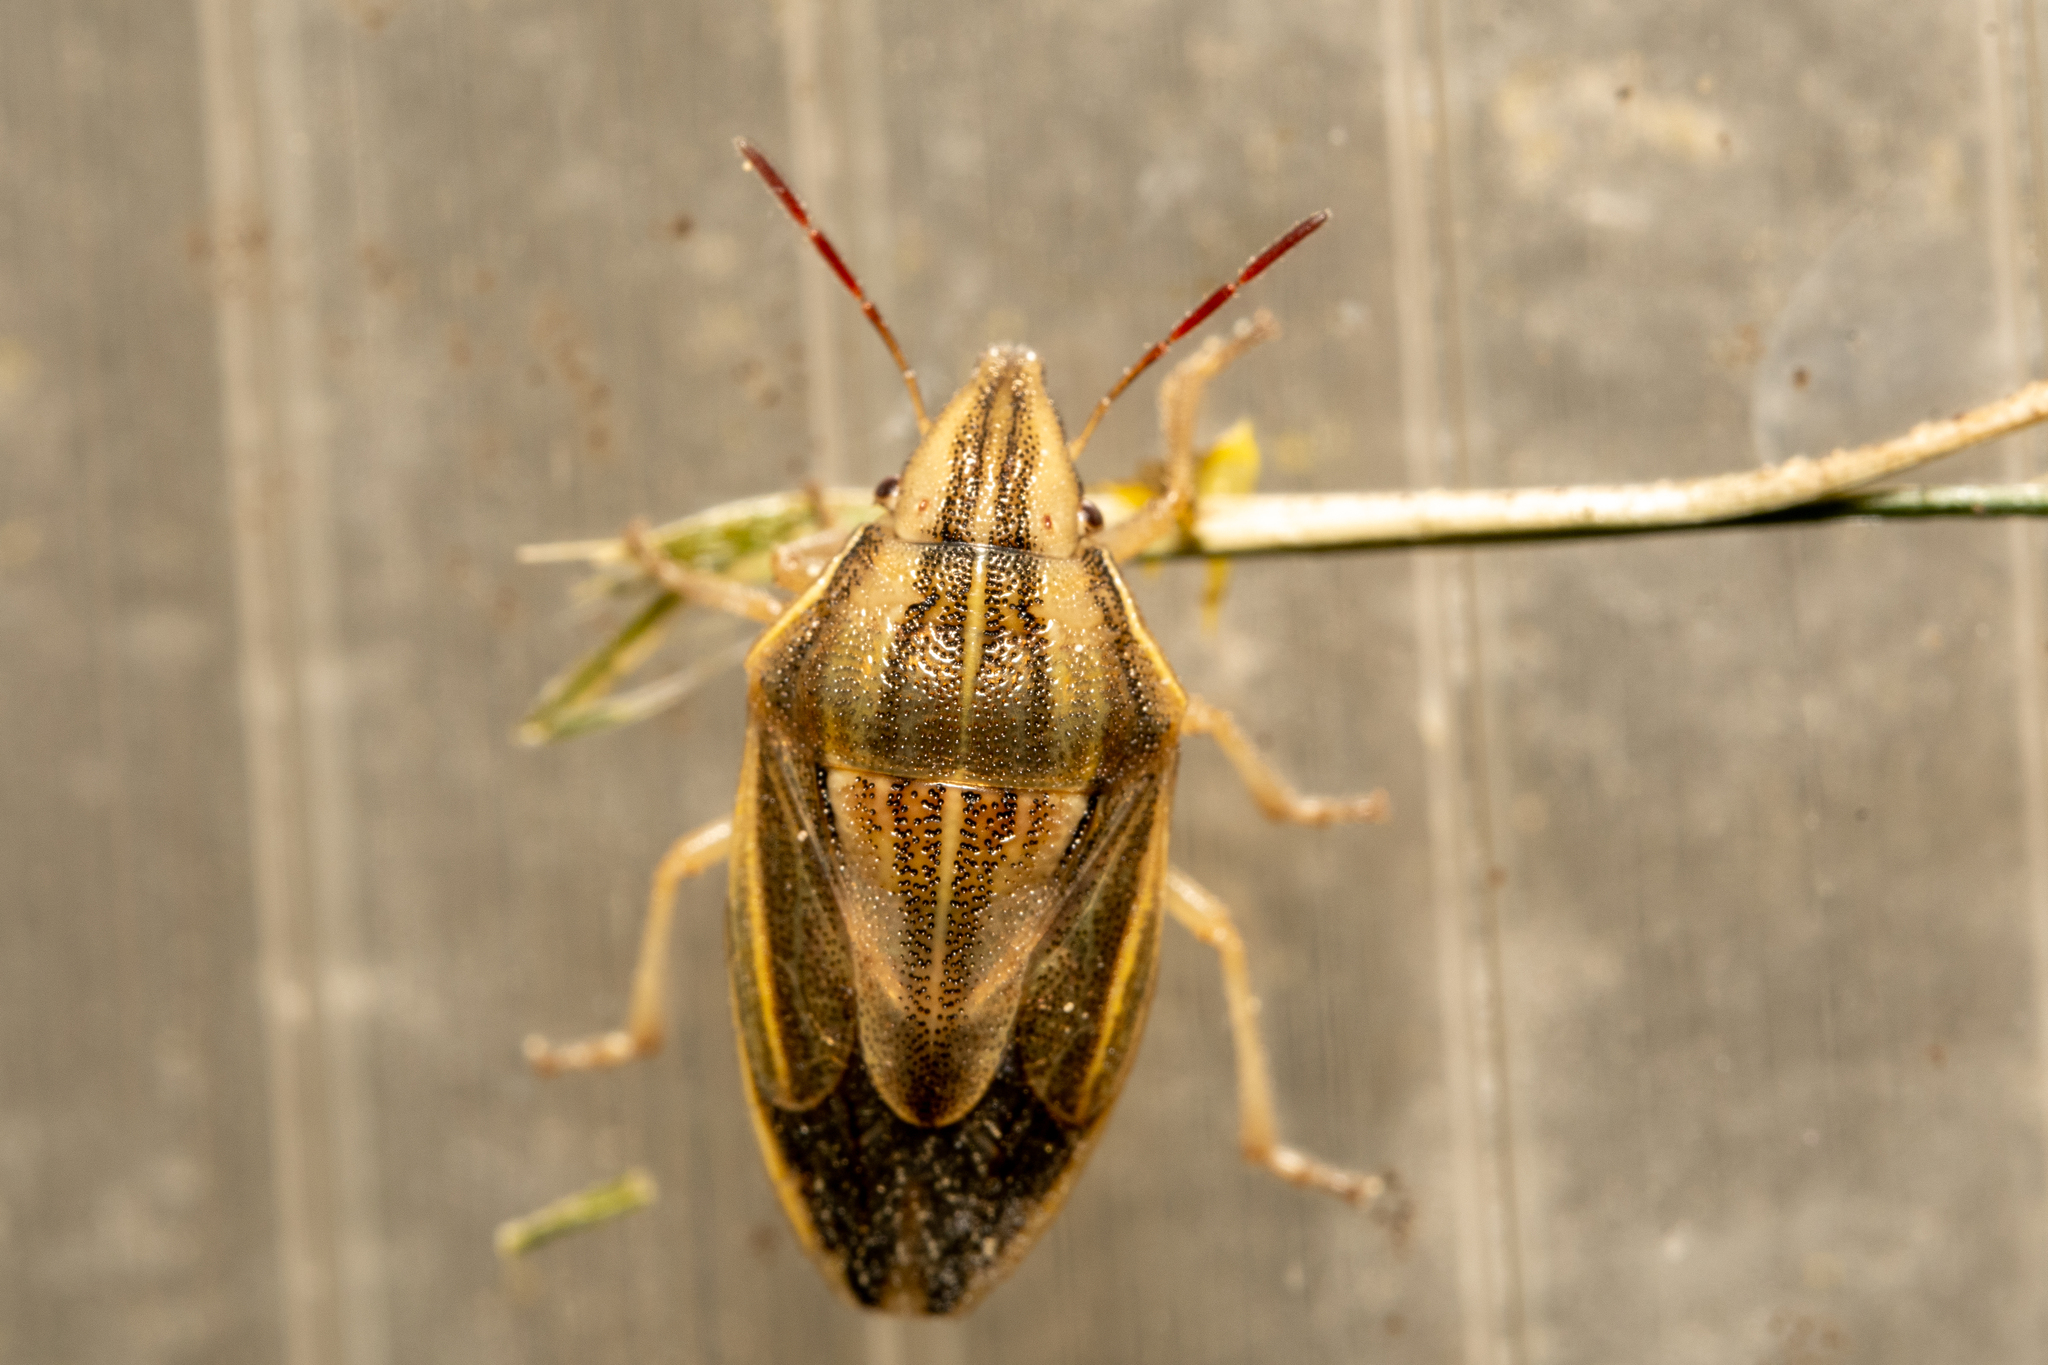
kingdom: Animalia
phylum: Arthropoda
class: Insecta
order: Hemiptera
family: Pentatomidae
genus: Aelia
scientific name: Aelia acuminata
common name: Bishop's mitre
